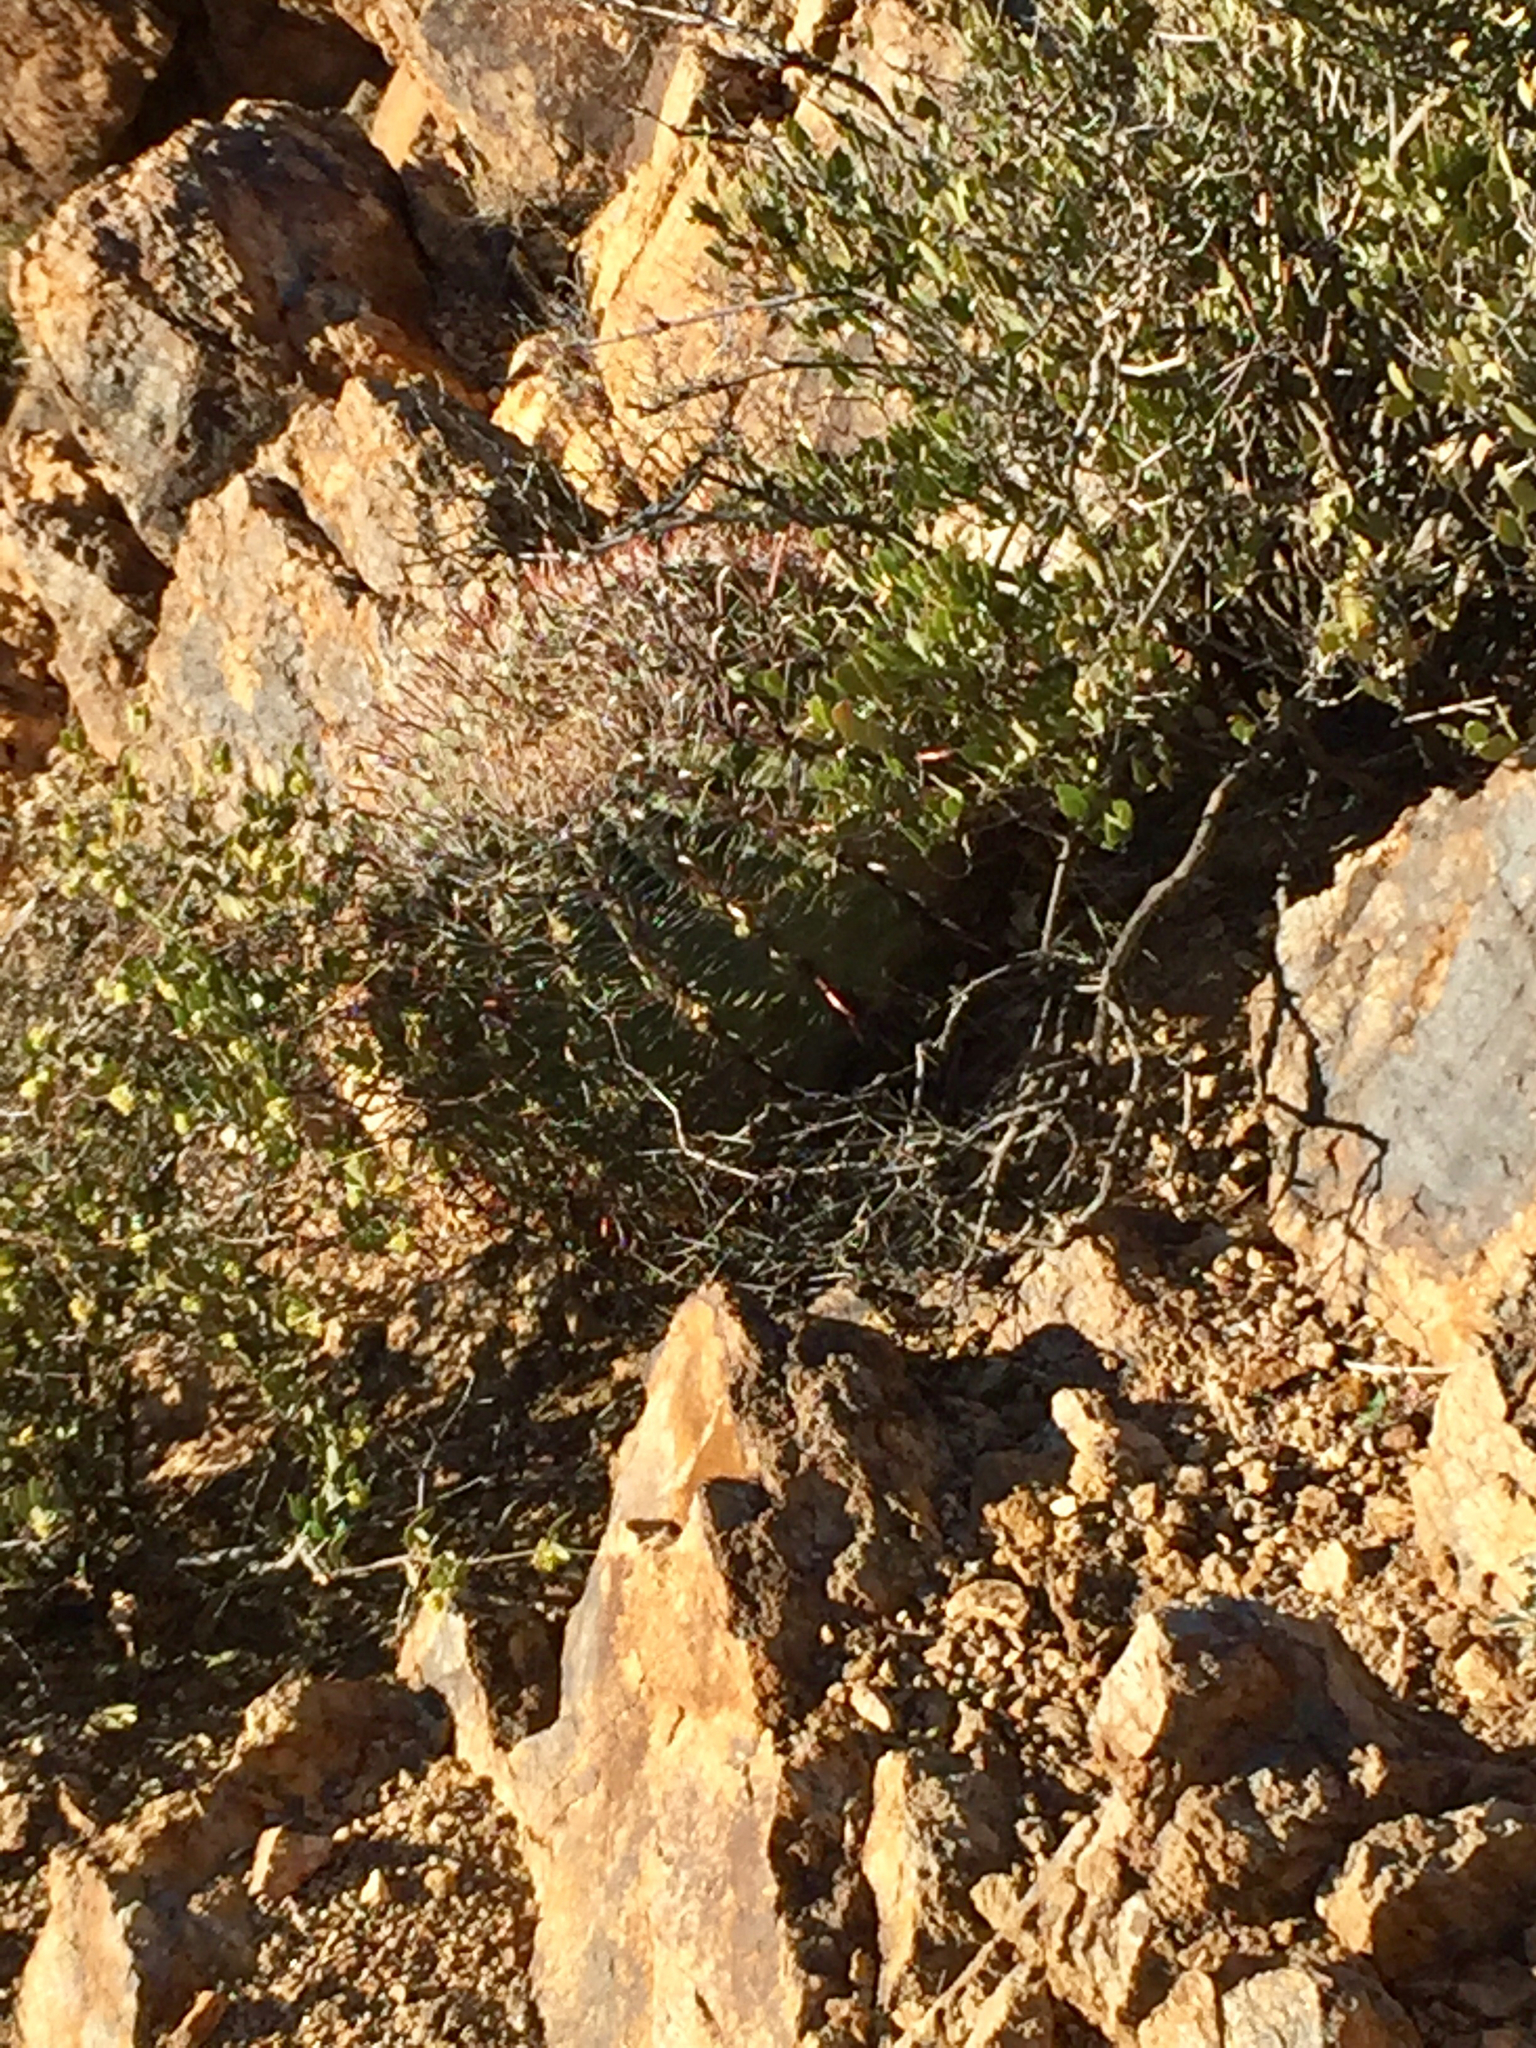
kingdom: Plantae
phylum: Tracheophyta
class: Magnoliopsida
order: Caryophyllales
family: Cactaceae
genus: Ferocactus
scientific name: Ferocactus wislizeni
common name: Candy barrel cactus
